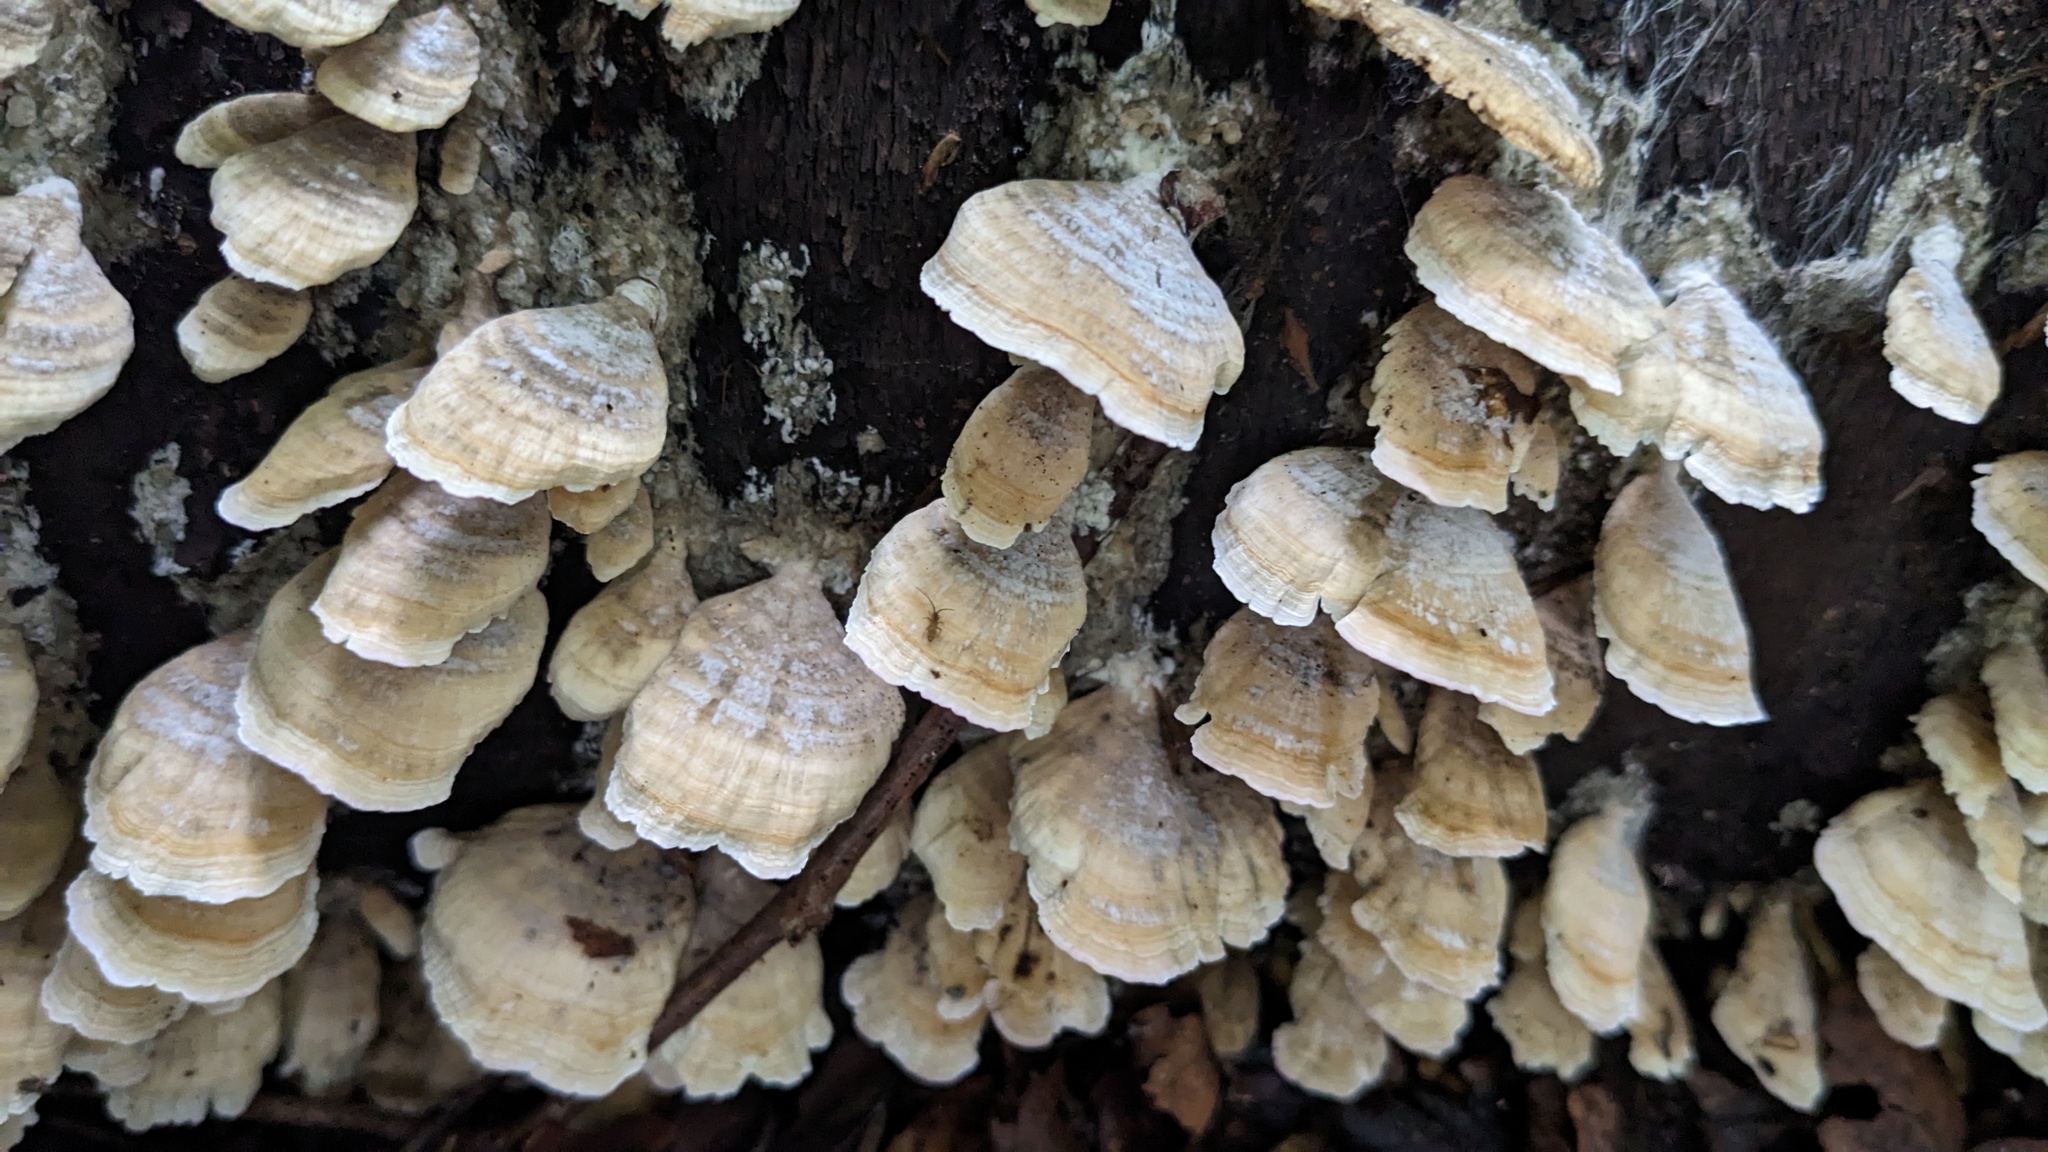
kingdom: Fungi
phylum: Basidiomycota
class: Agaricomycetes
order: Hymenochaetales
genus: Trichaptum
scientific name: Trichaptum biforme
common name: Violet-toothed polypore
